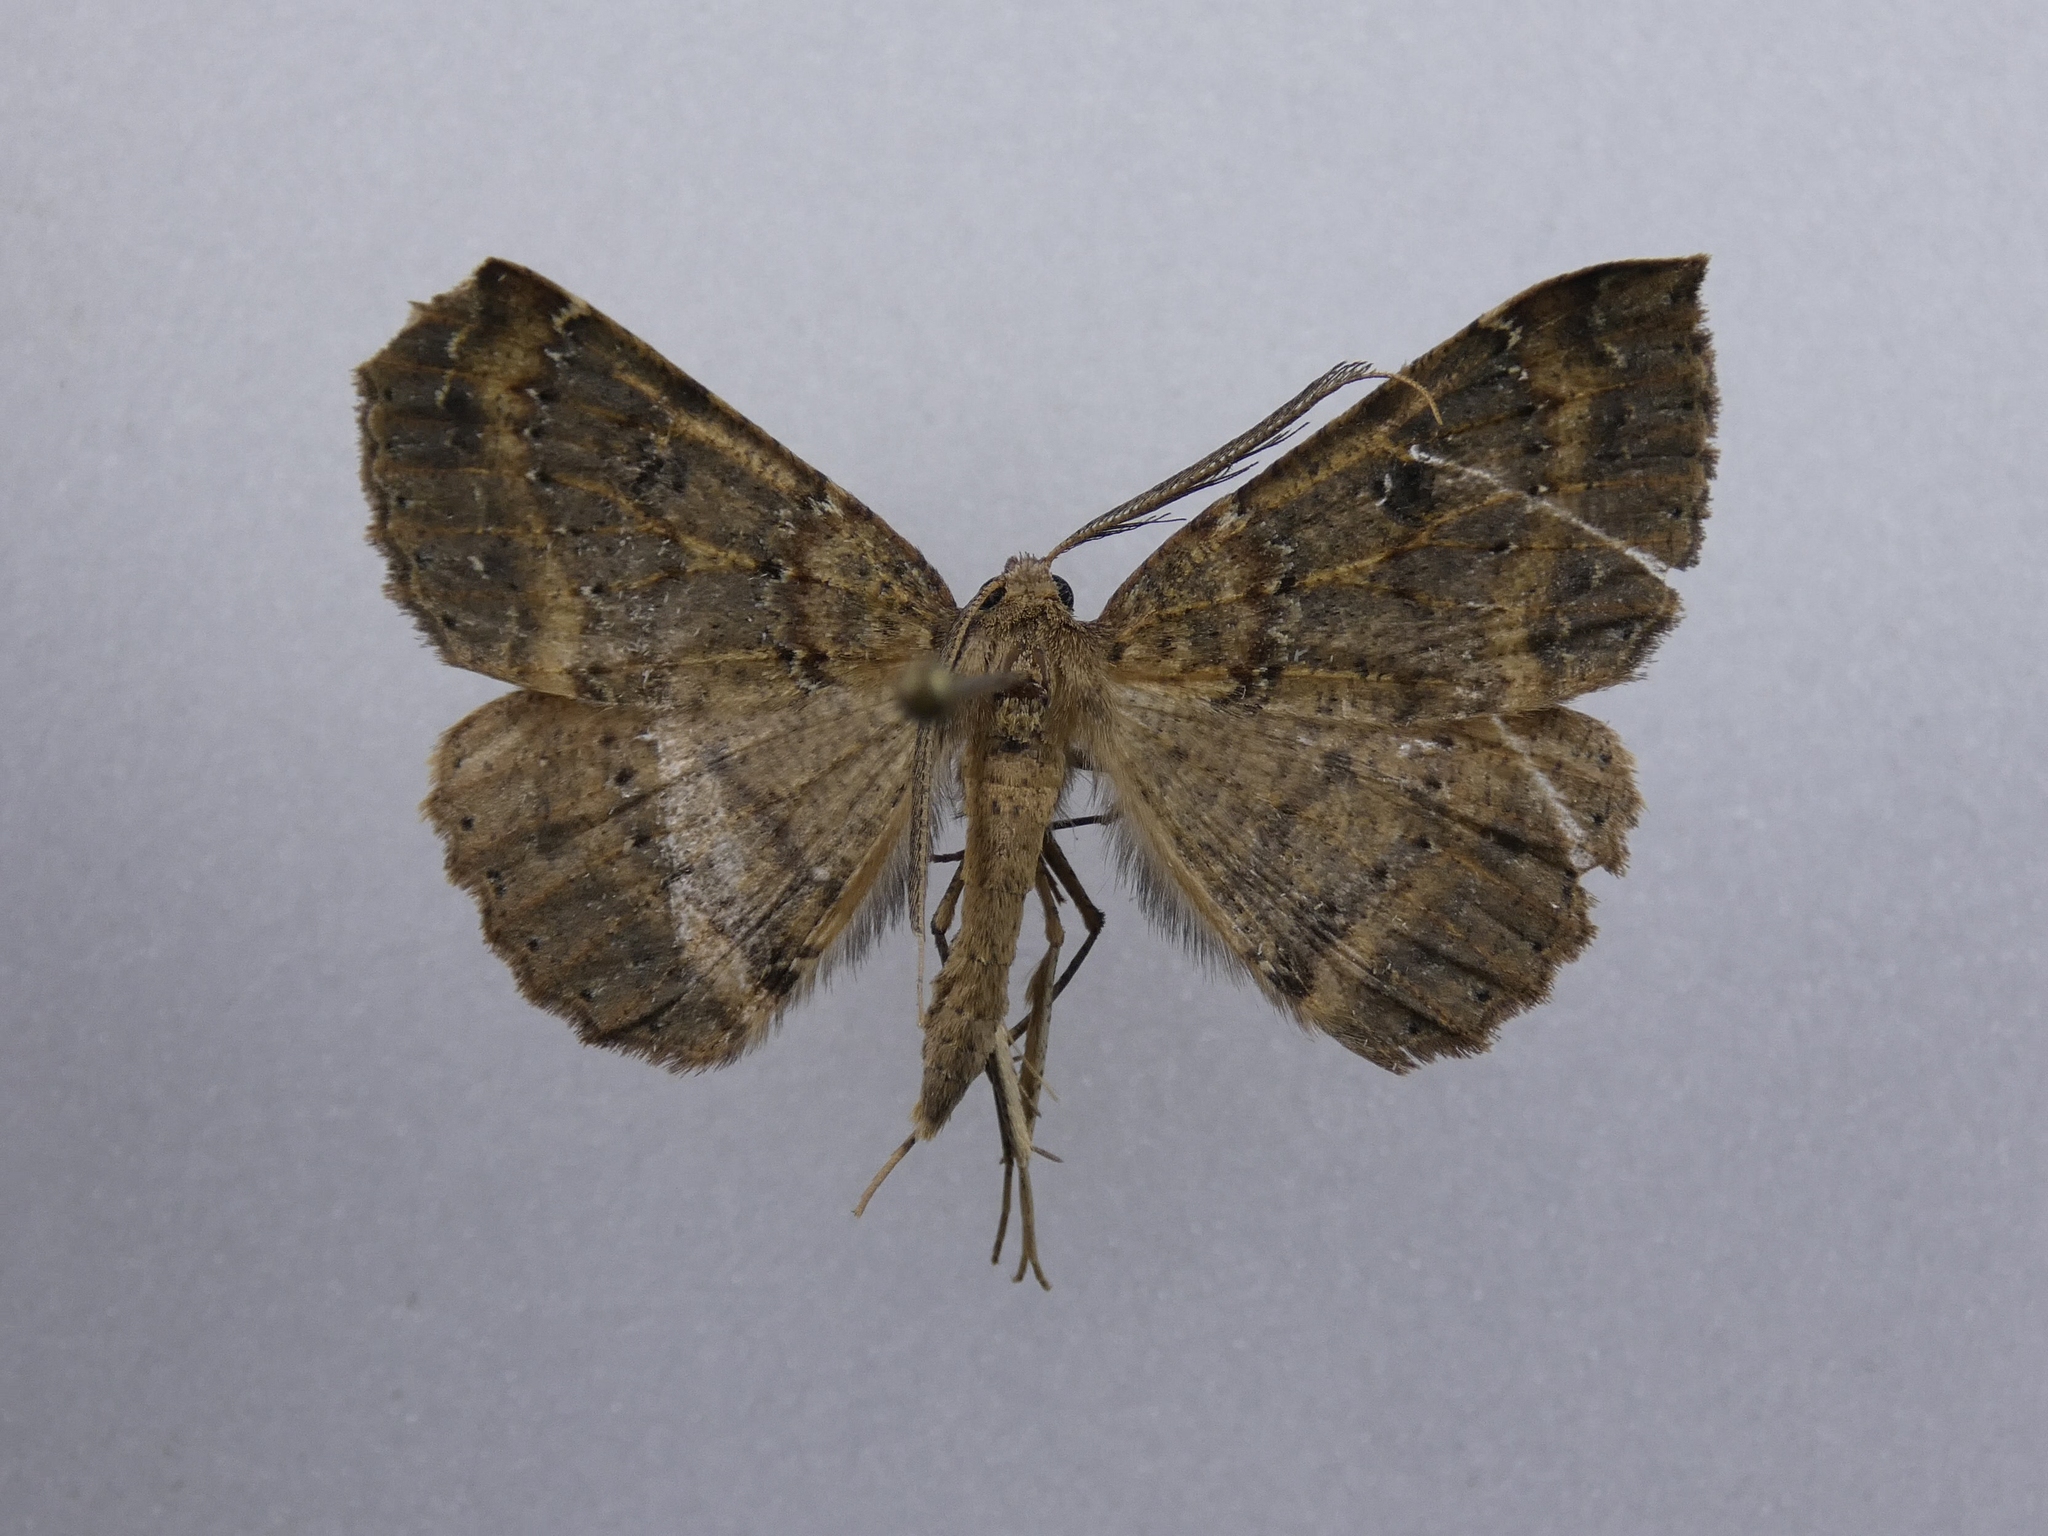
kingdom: Animalia
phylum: Arthropoda
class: Insecta
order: Lepidoptera
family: Geometridae
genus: Cleora
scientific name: Cleora scriptaria
